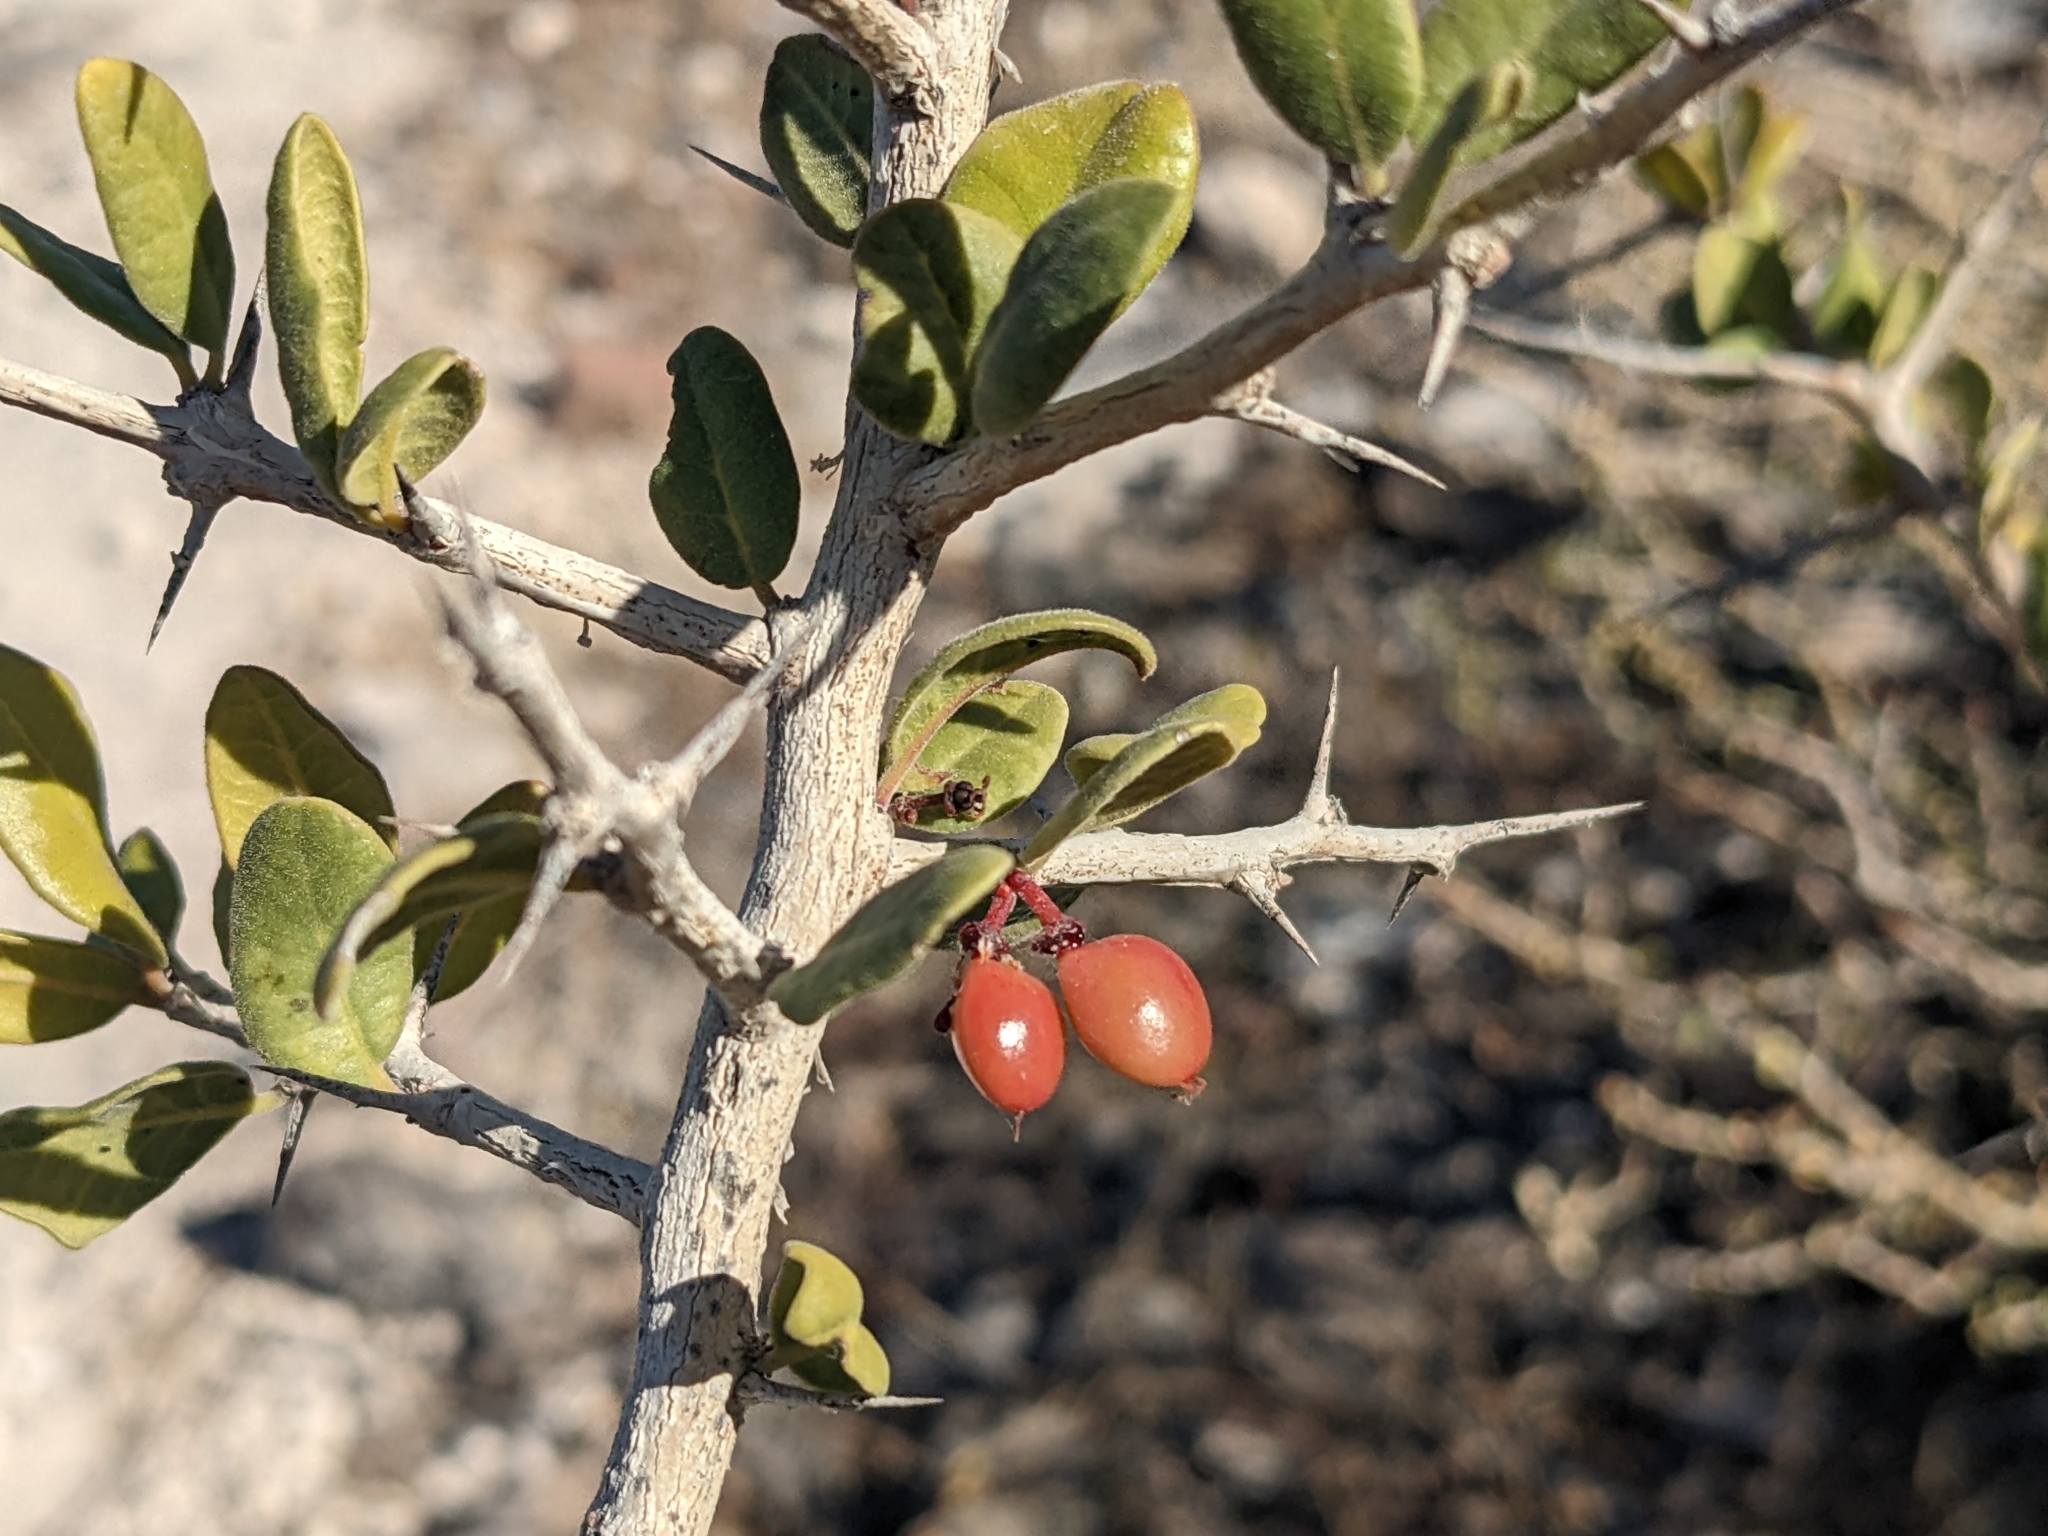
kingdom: Plantae
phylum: Tracheophyta
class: Magnoliopsida
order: Sapindales
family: Simaroubaceae
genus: Castela
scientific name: Castela peninsularis
